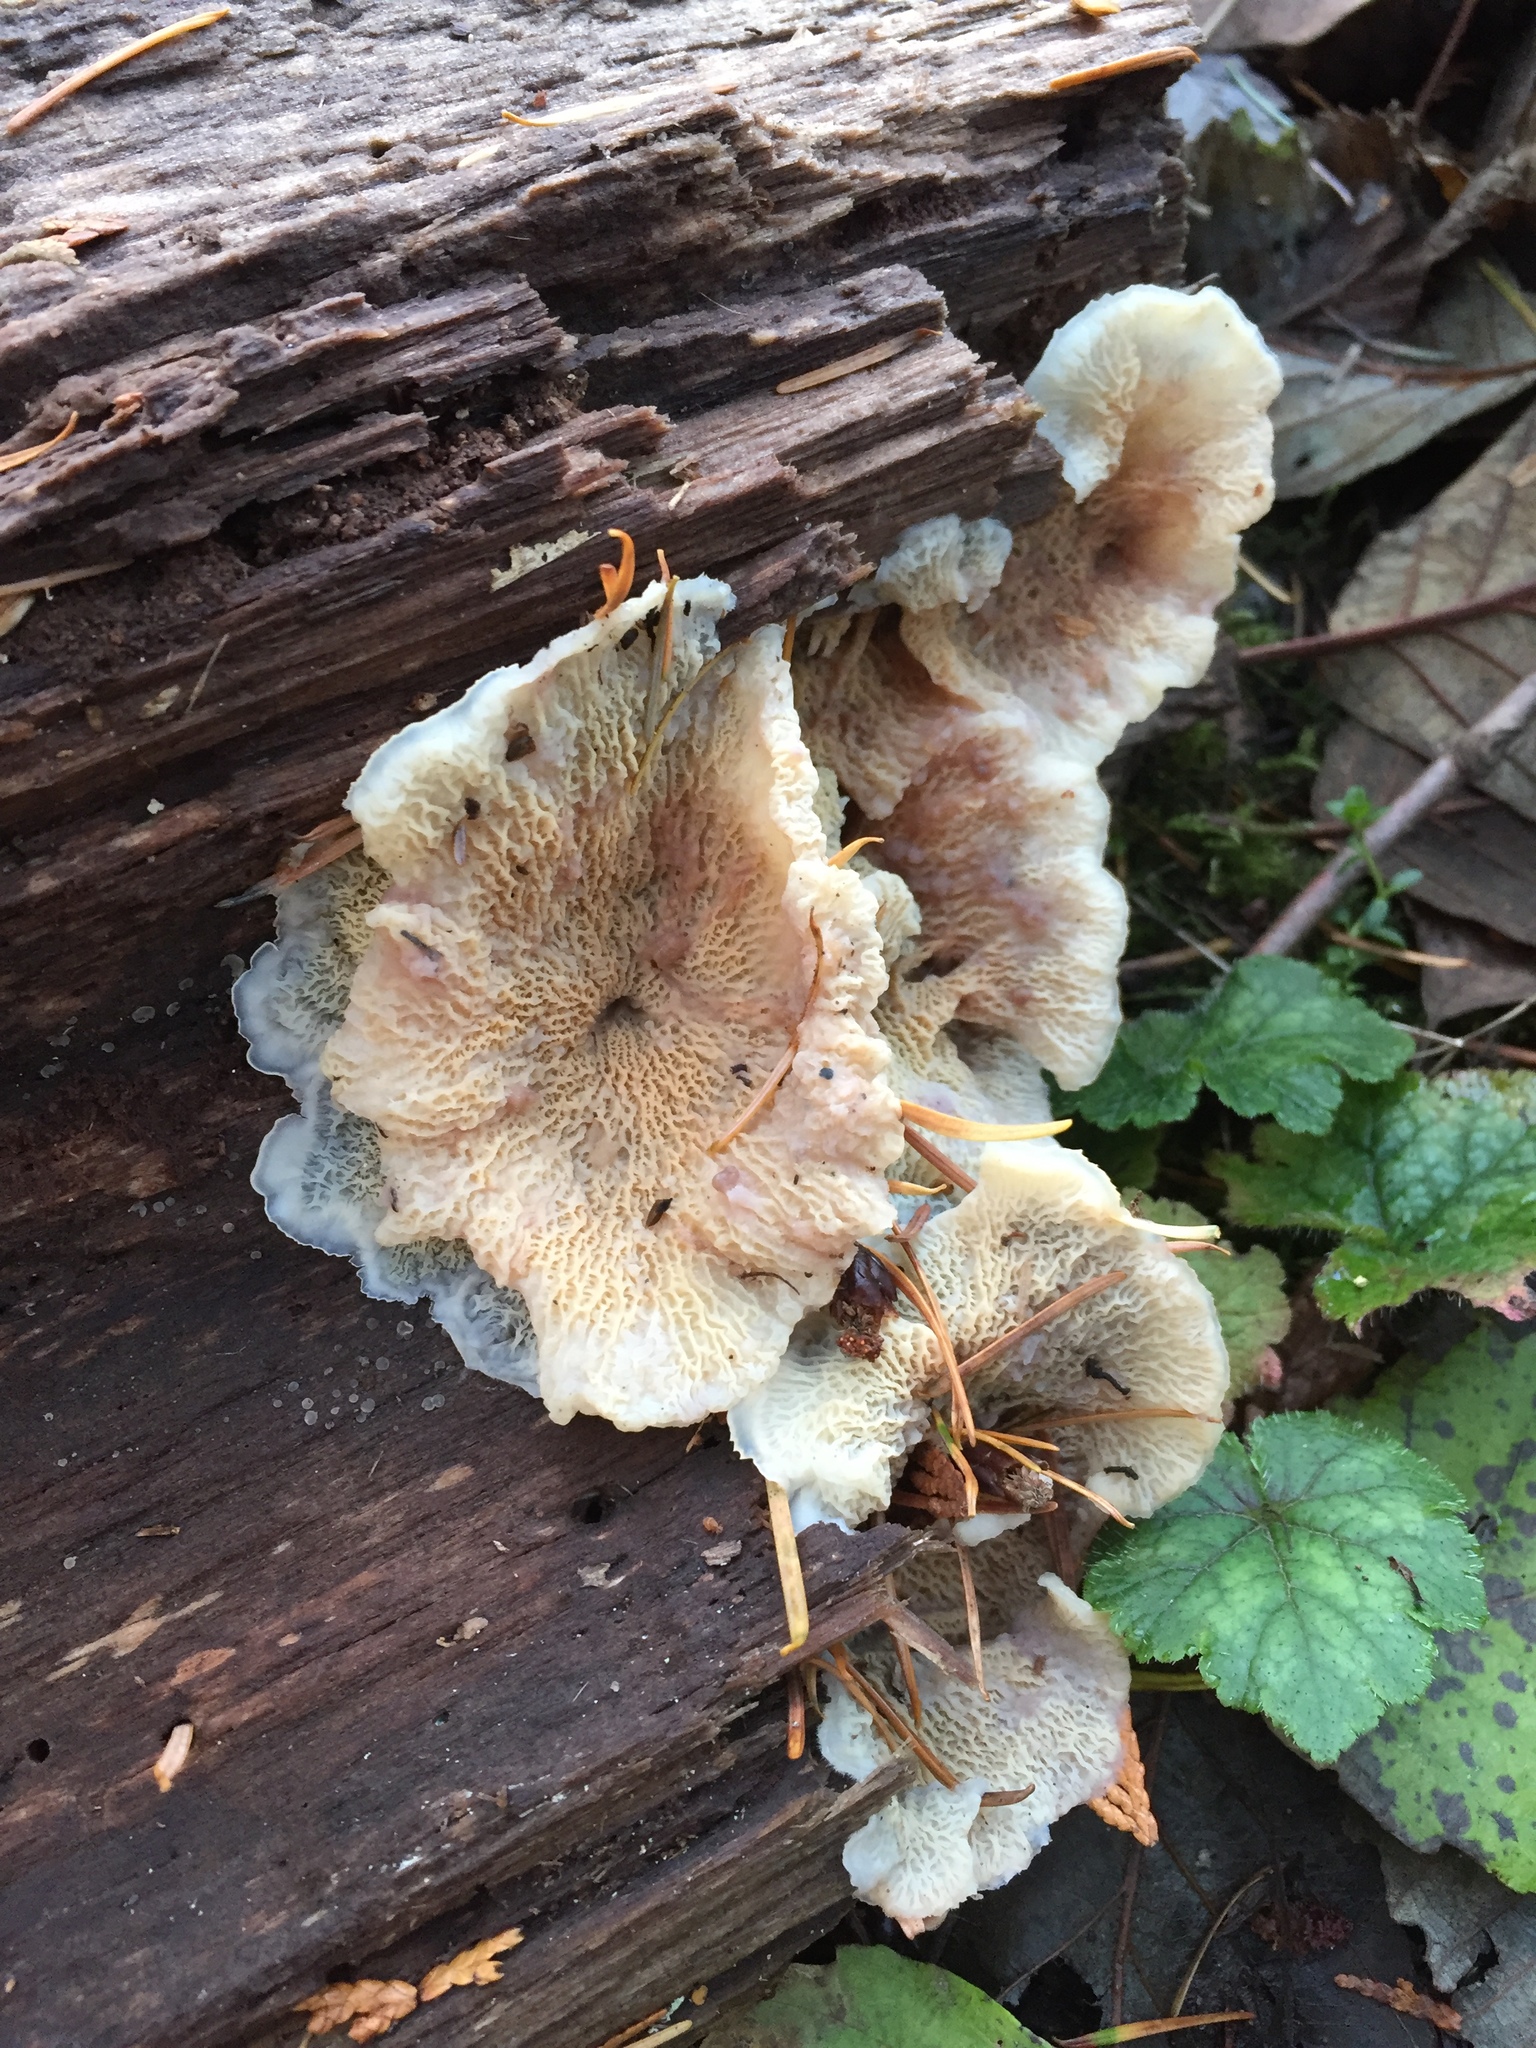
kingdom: Fungi
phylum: Basidiomycota
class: Agaricomycetes
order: Polyporales
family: Meruliaceae
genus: Phlebia
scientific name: Phlebia tremellosa
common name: Jelly rot
